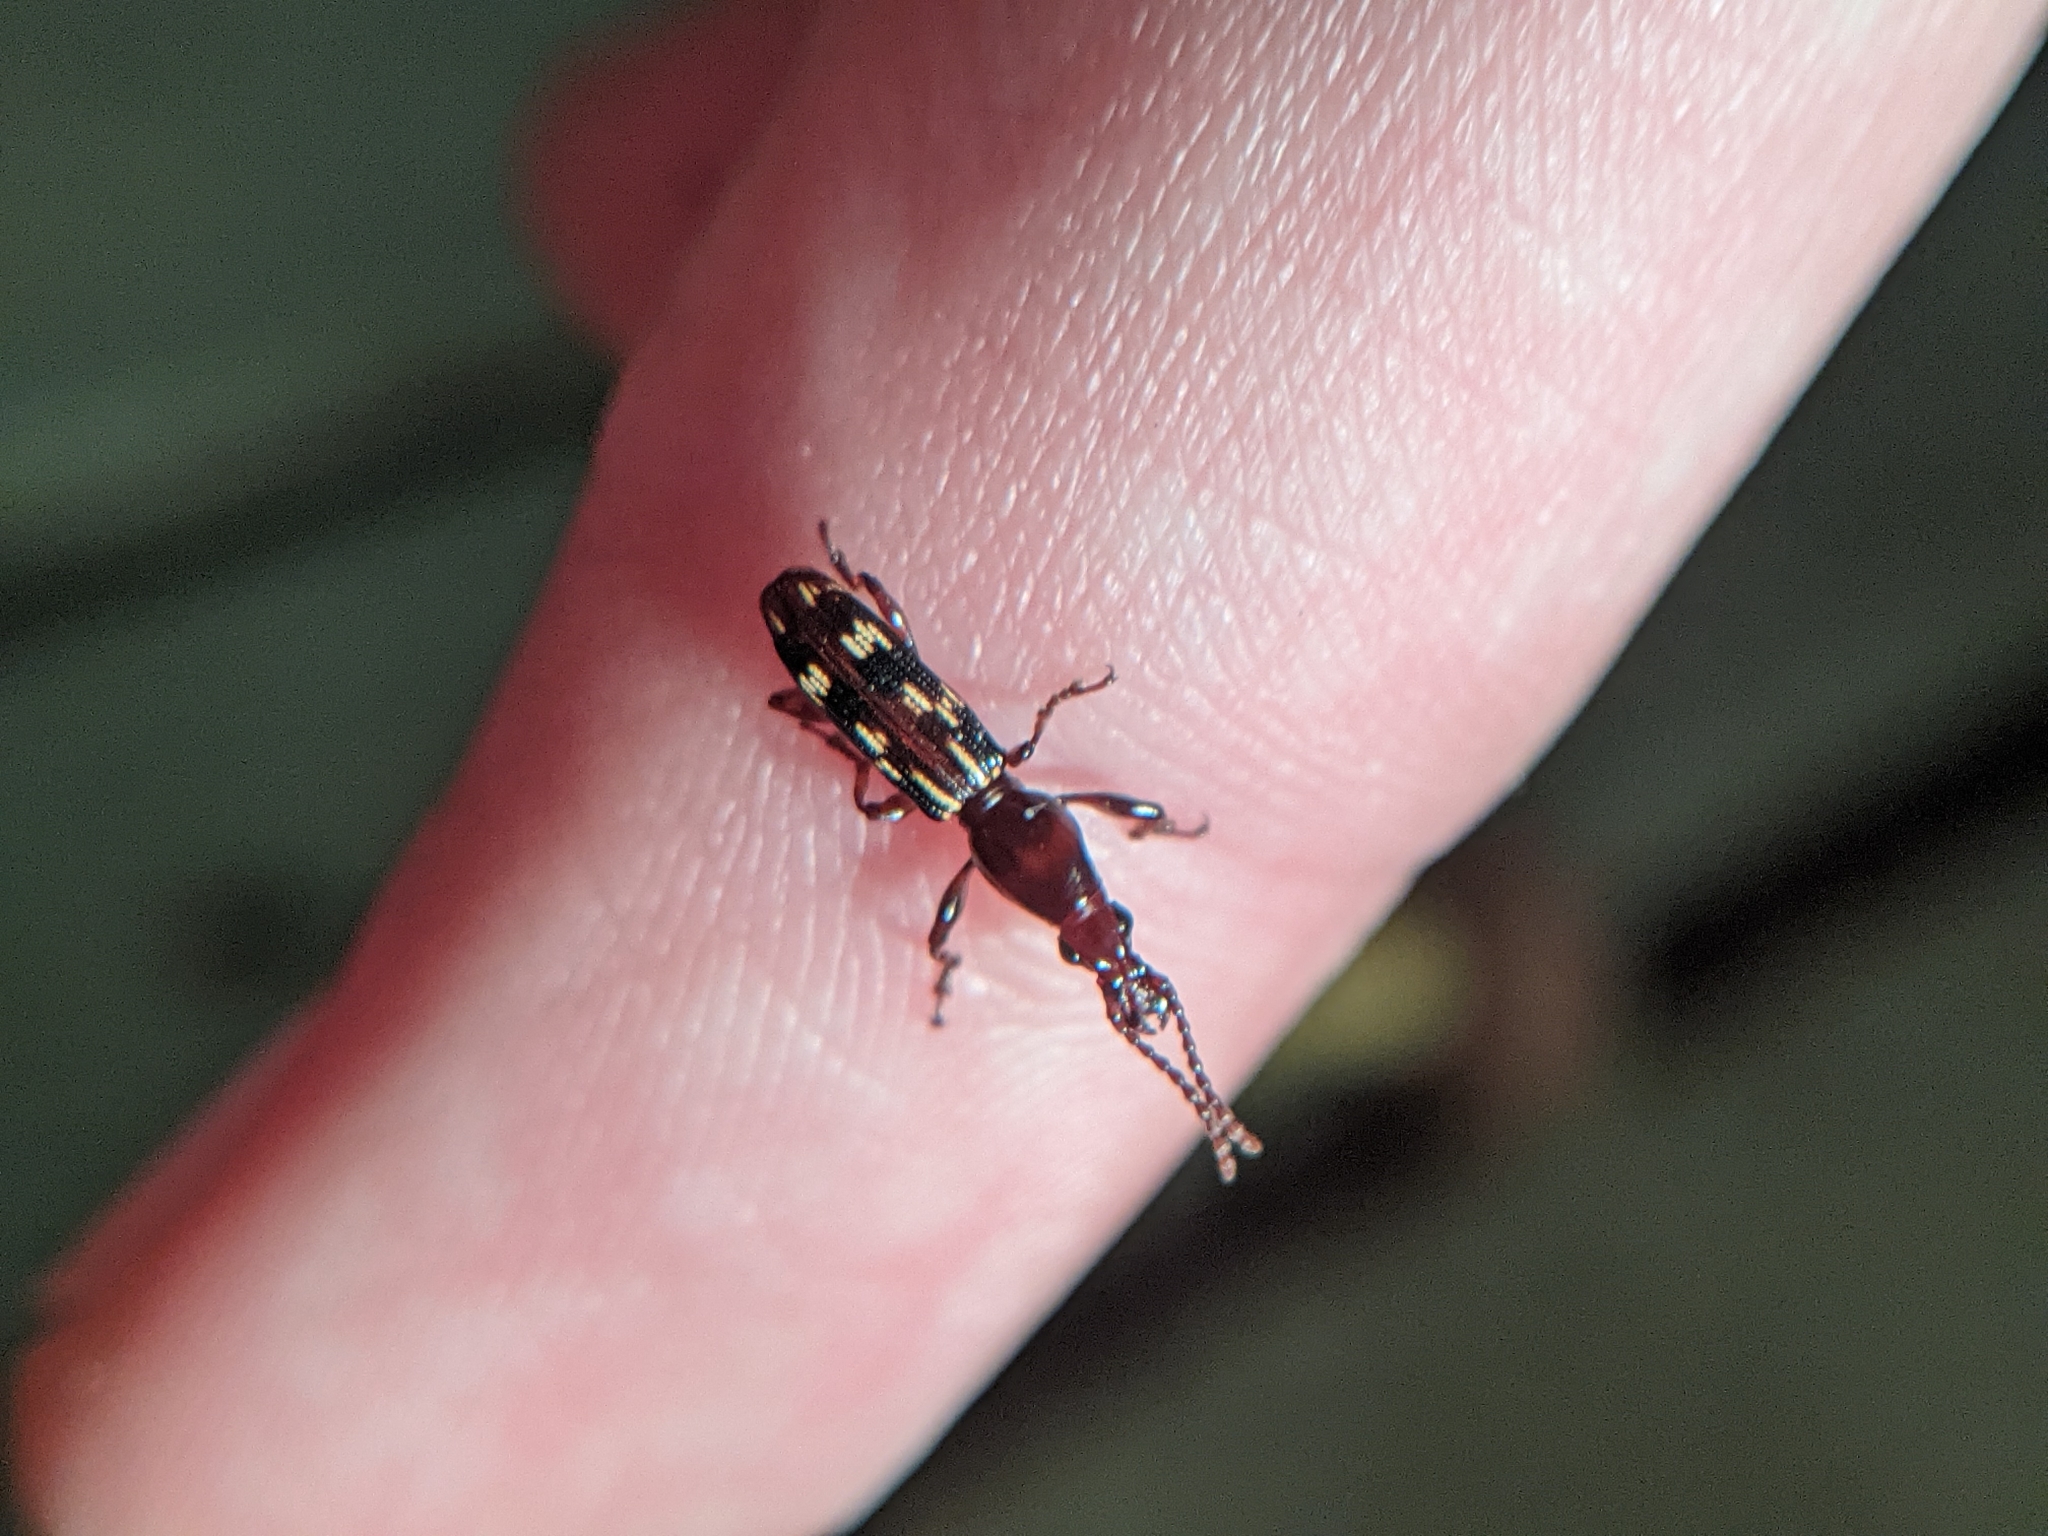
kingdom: Animalia
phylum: Arthropoda
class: Insecta
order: Coleoptera
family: Brentidae
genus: Arrenodes
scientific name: Arrenodes minutus
